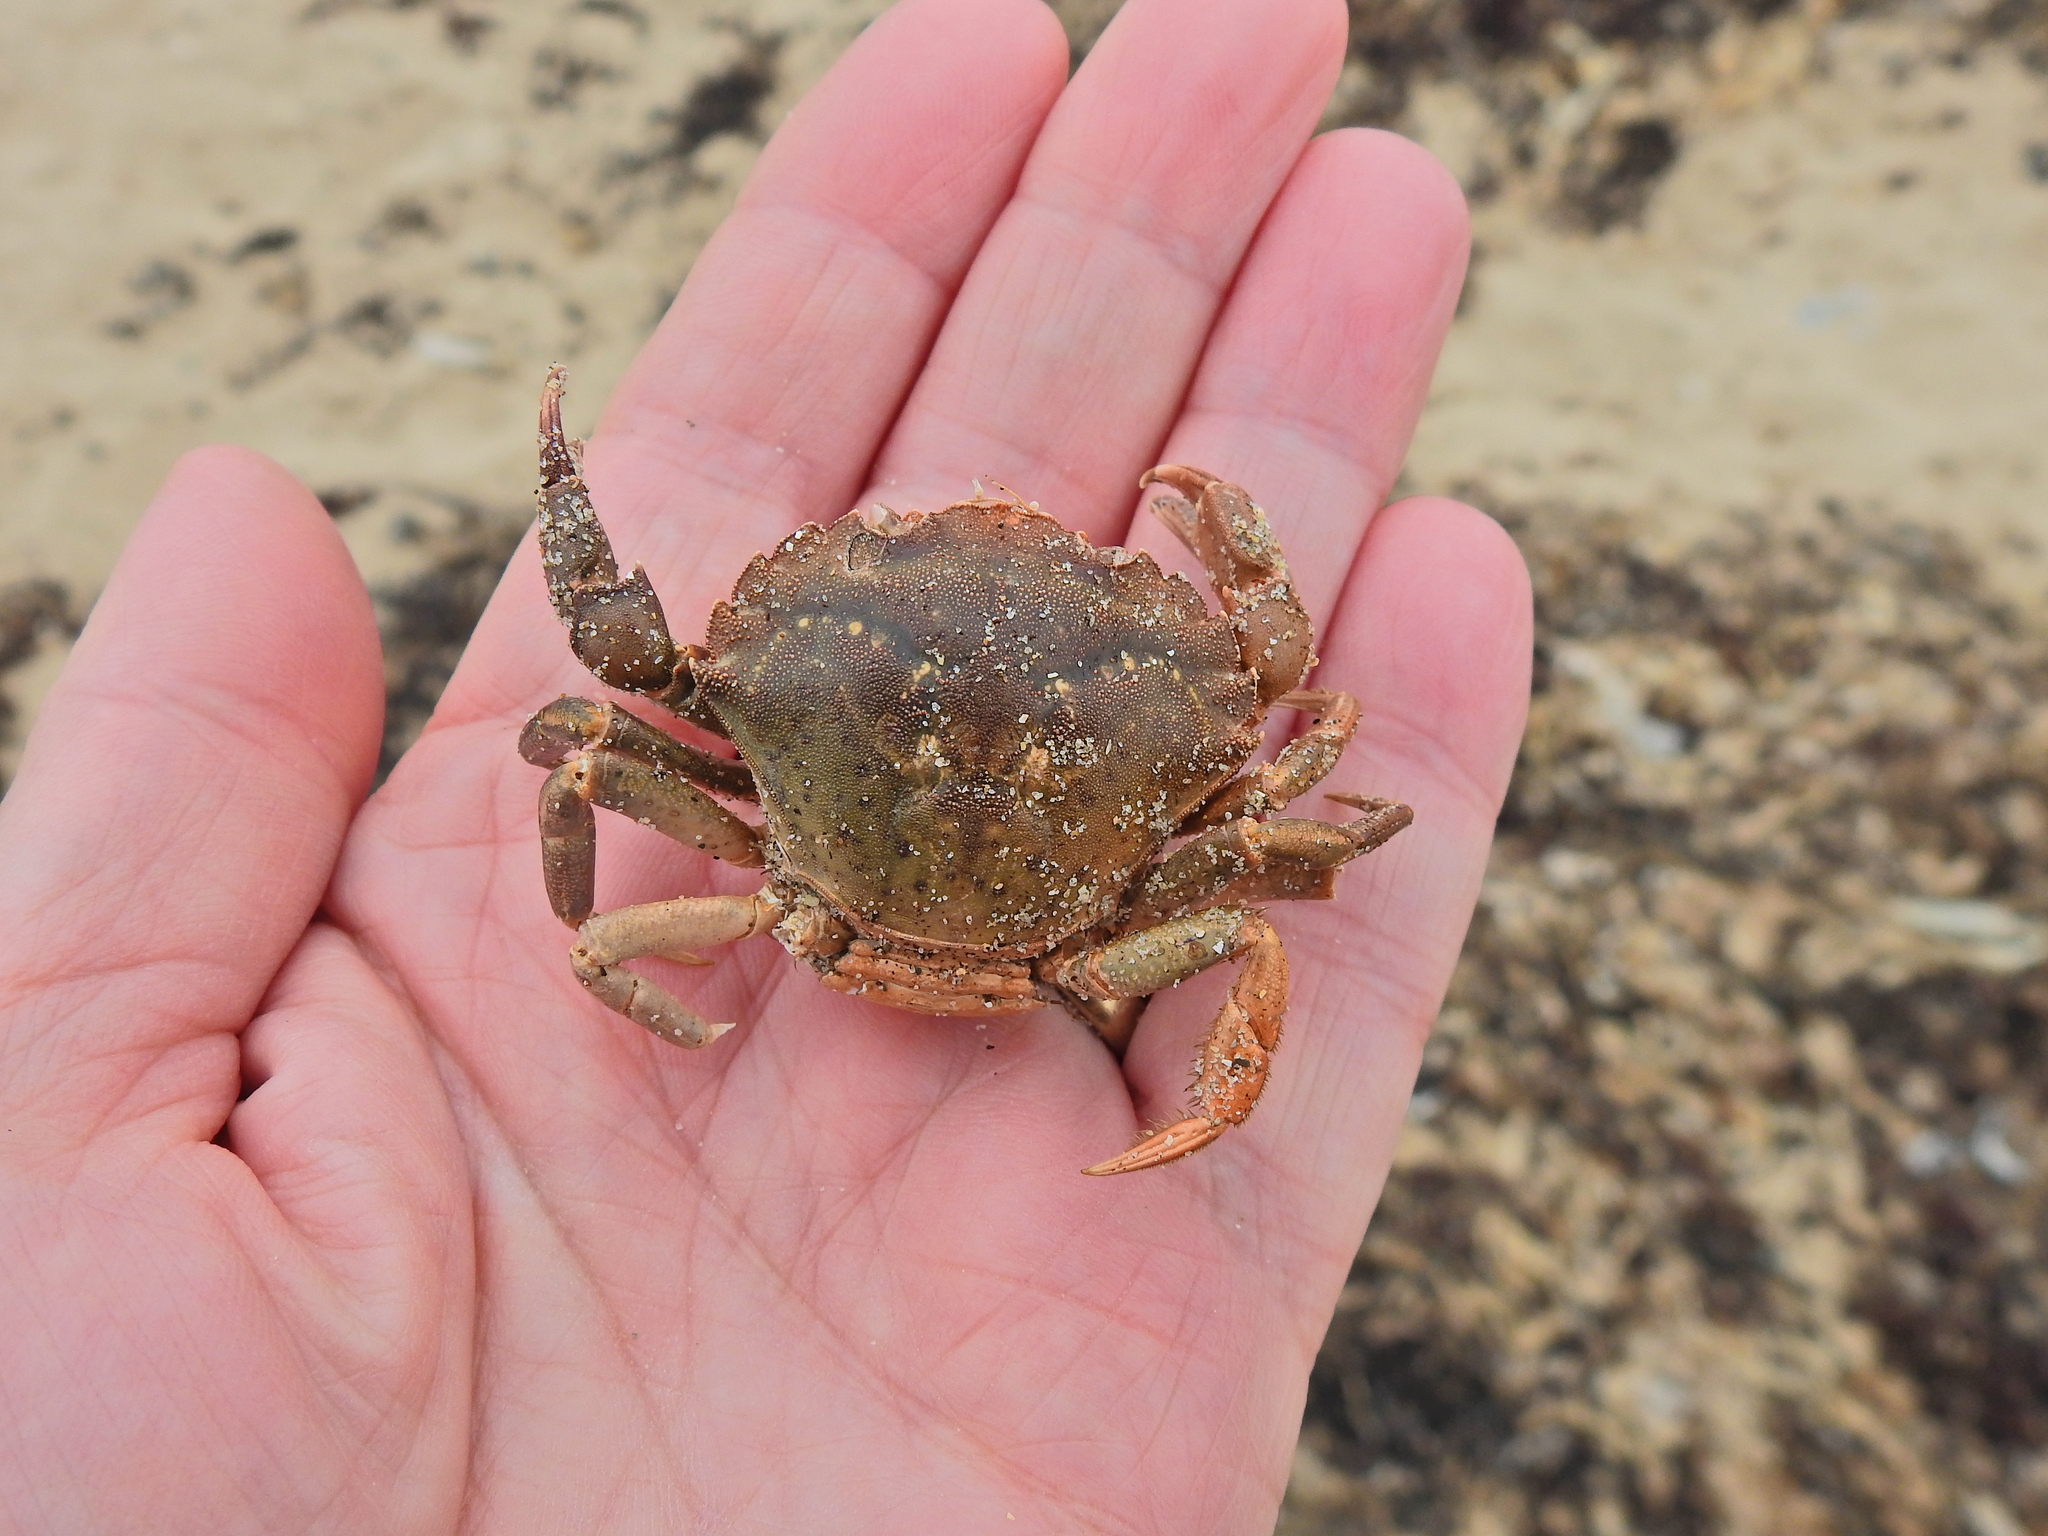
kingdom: Animalia
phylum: Arthropoda
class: Malacostraca
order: Decapoda
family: Carcinidae
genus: Carcinus
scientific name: Carcinus maenas
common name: European green crab
